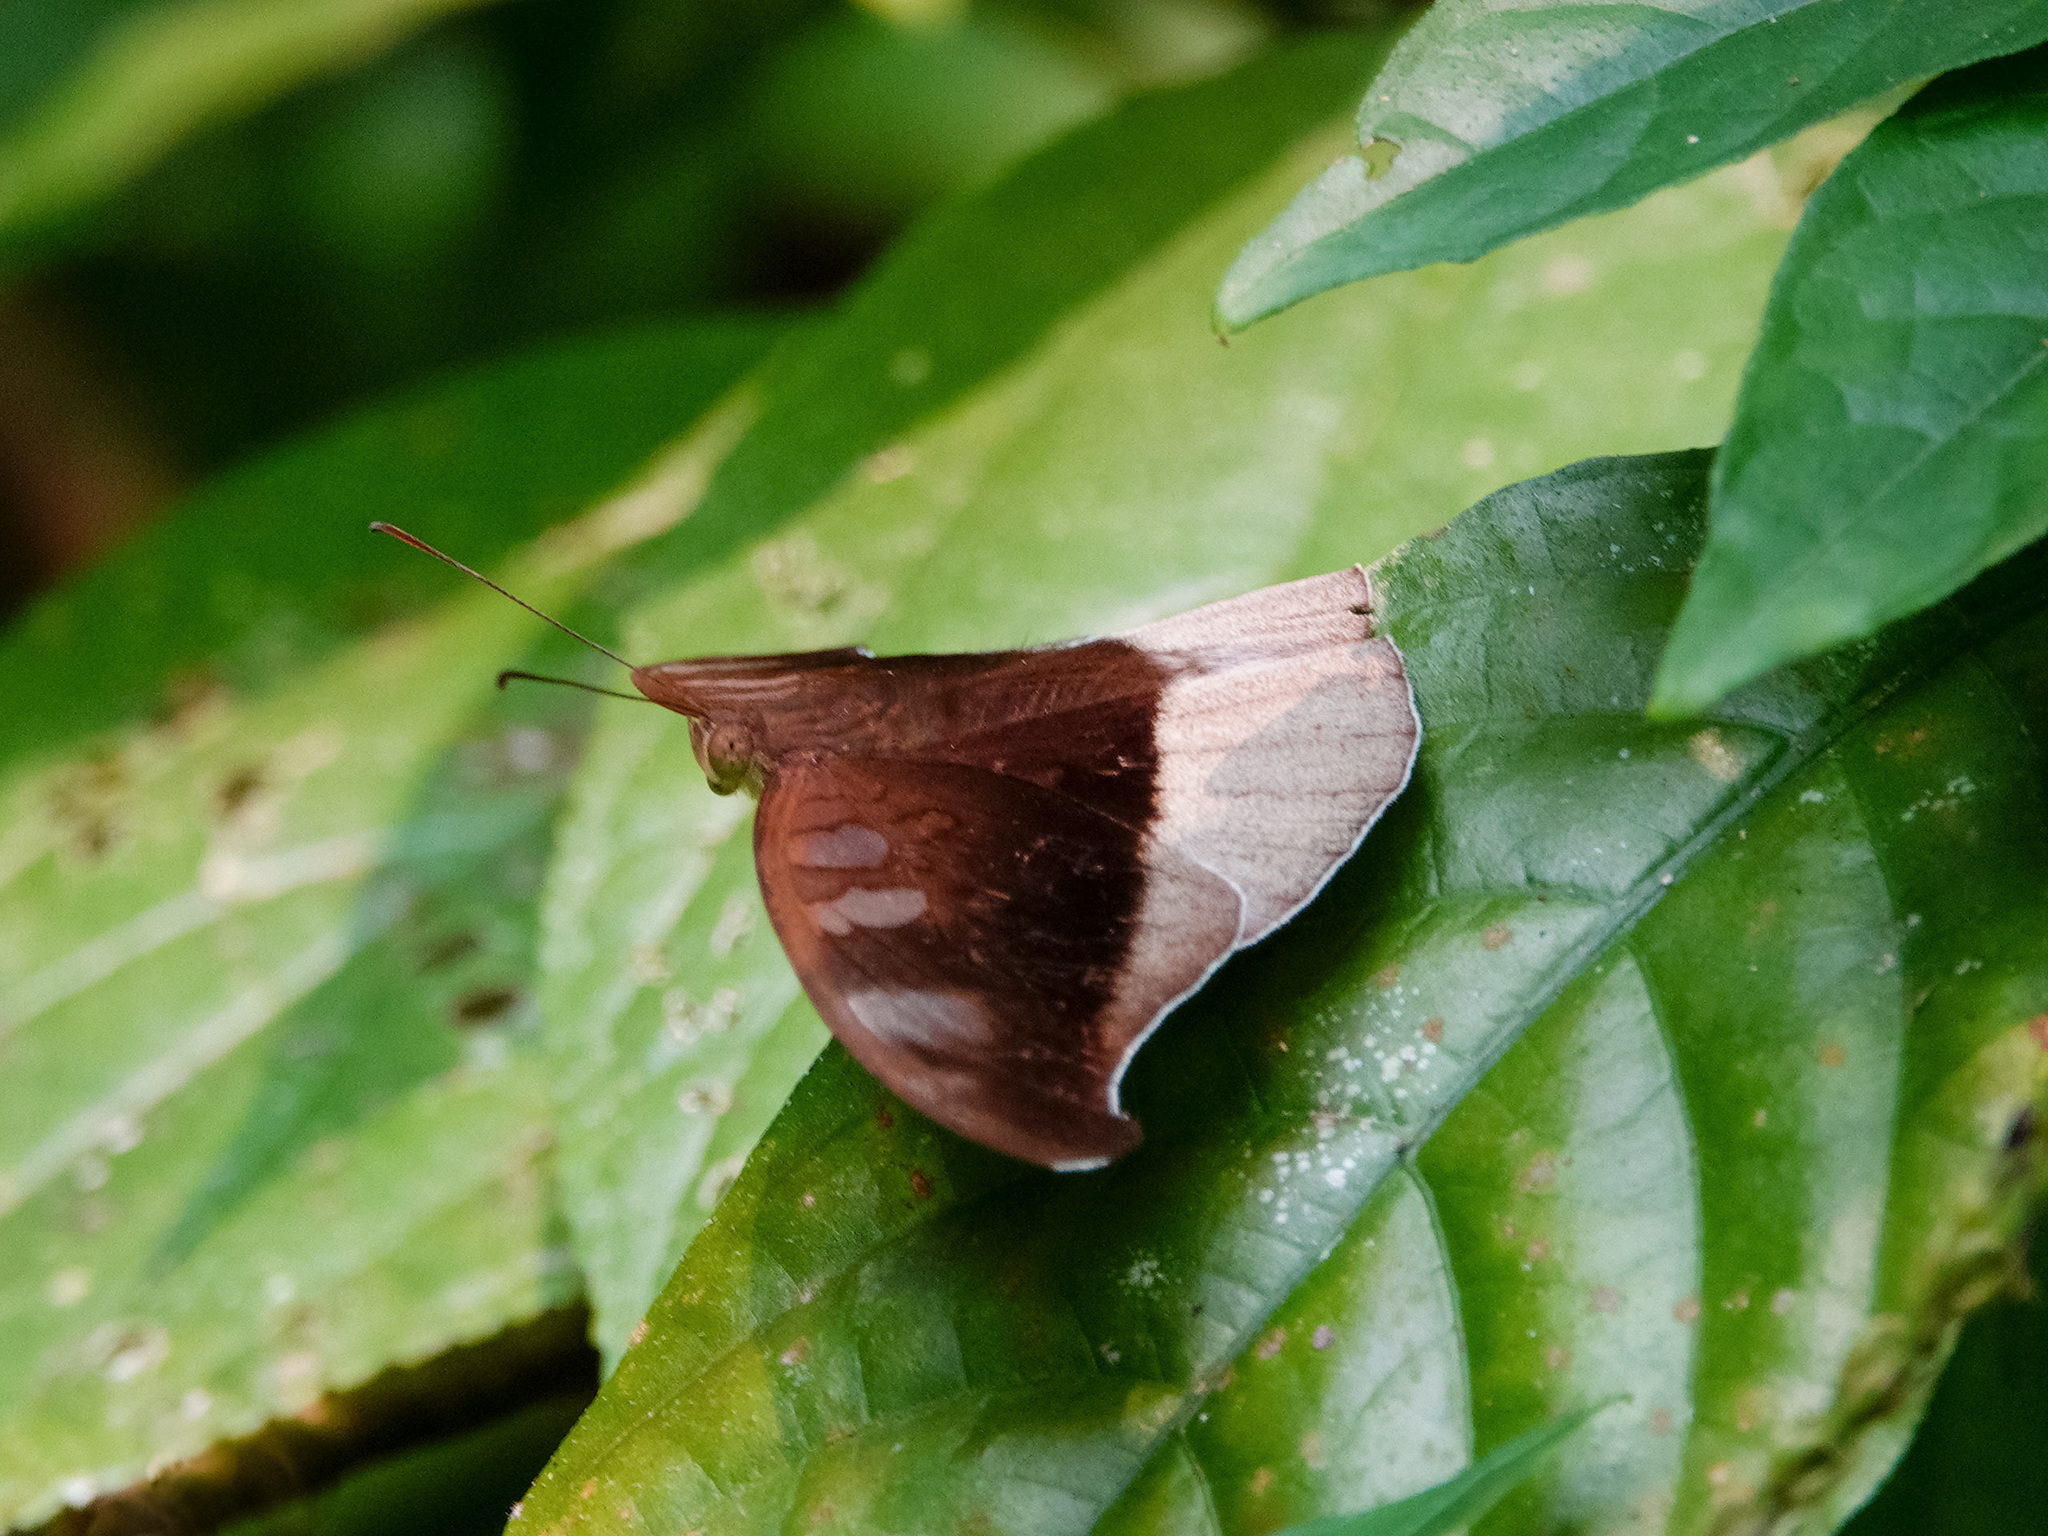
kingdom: Animalia
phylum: Arthropoda
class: Insecta
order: Lepidoptera
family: Nymphalidae
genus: Tanaecia
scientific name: Tanaecia cocytus
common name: Lavender count
